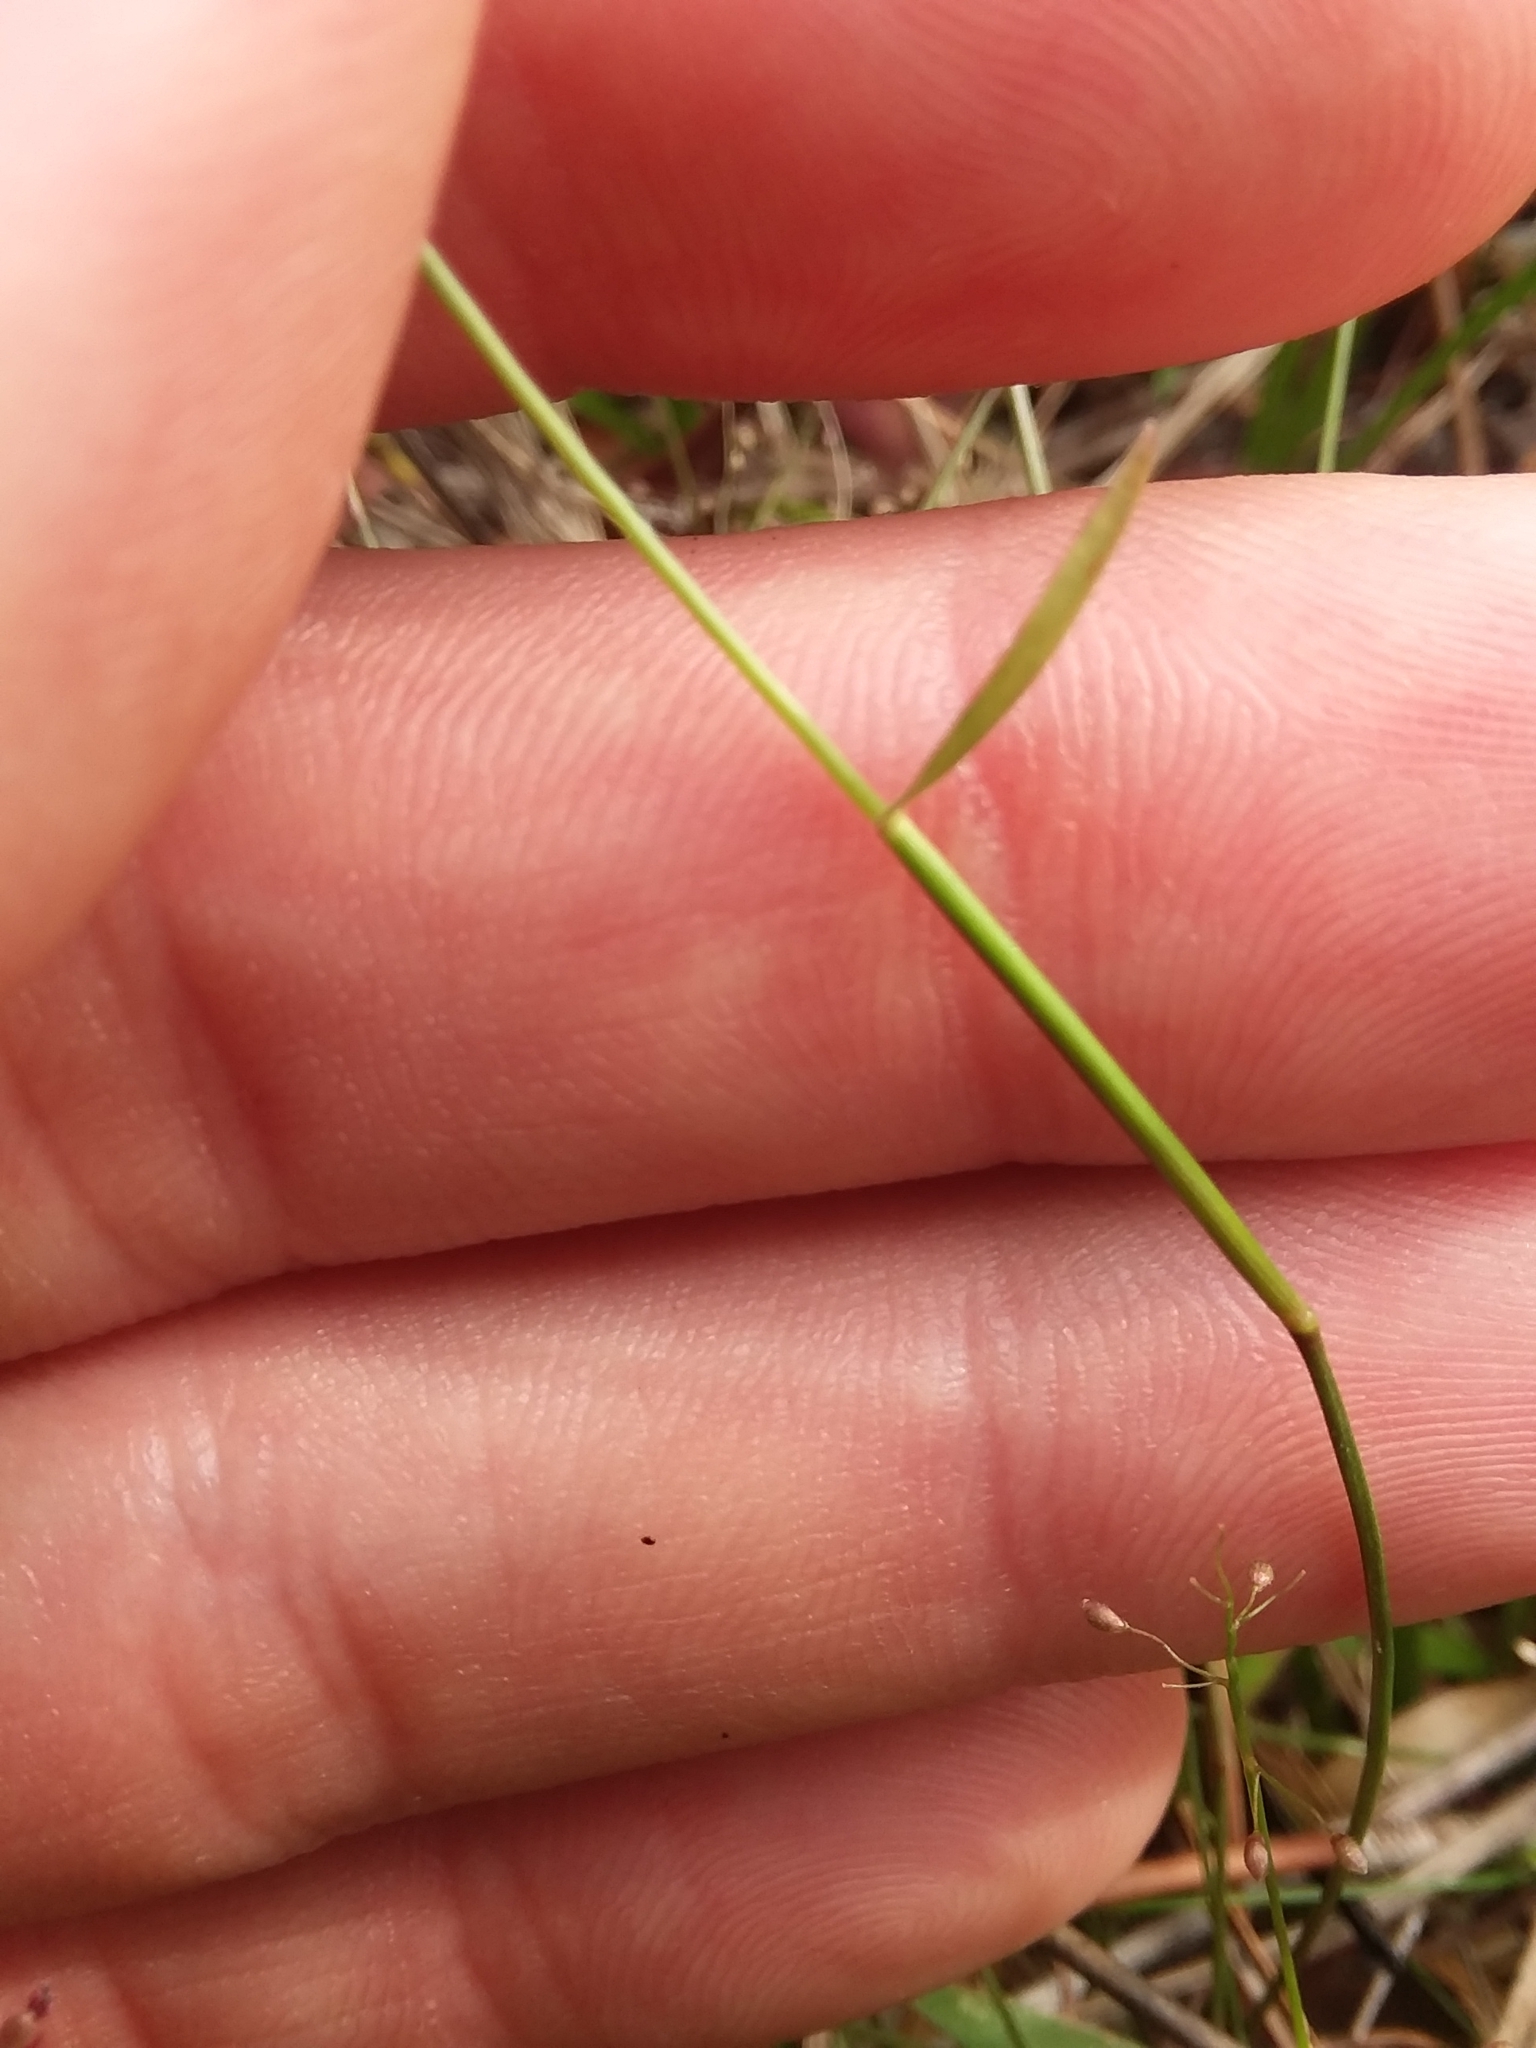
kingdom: Plantae
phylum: Tracheophyta
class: Liliopsida
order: Poales
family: Poaceae
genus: Dichanthelium
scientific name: Dichanthelium ensifolium
